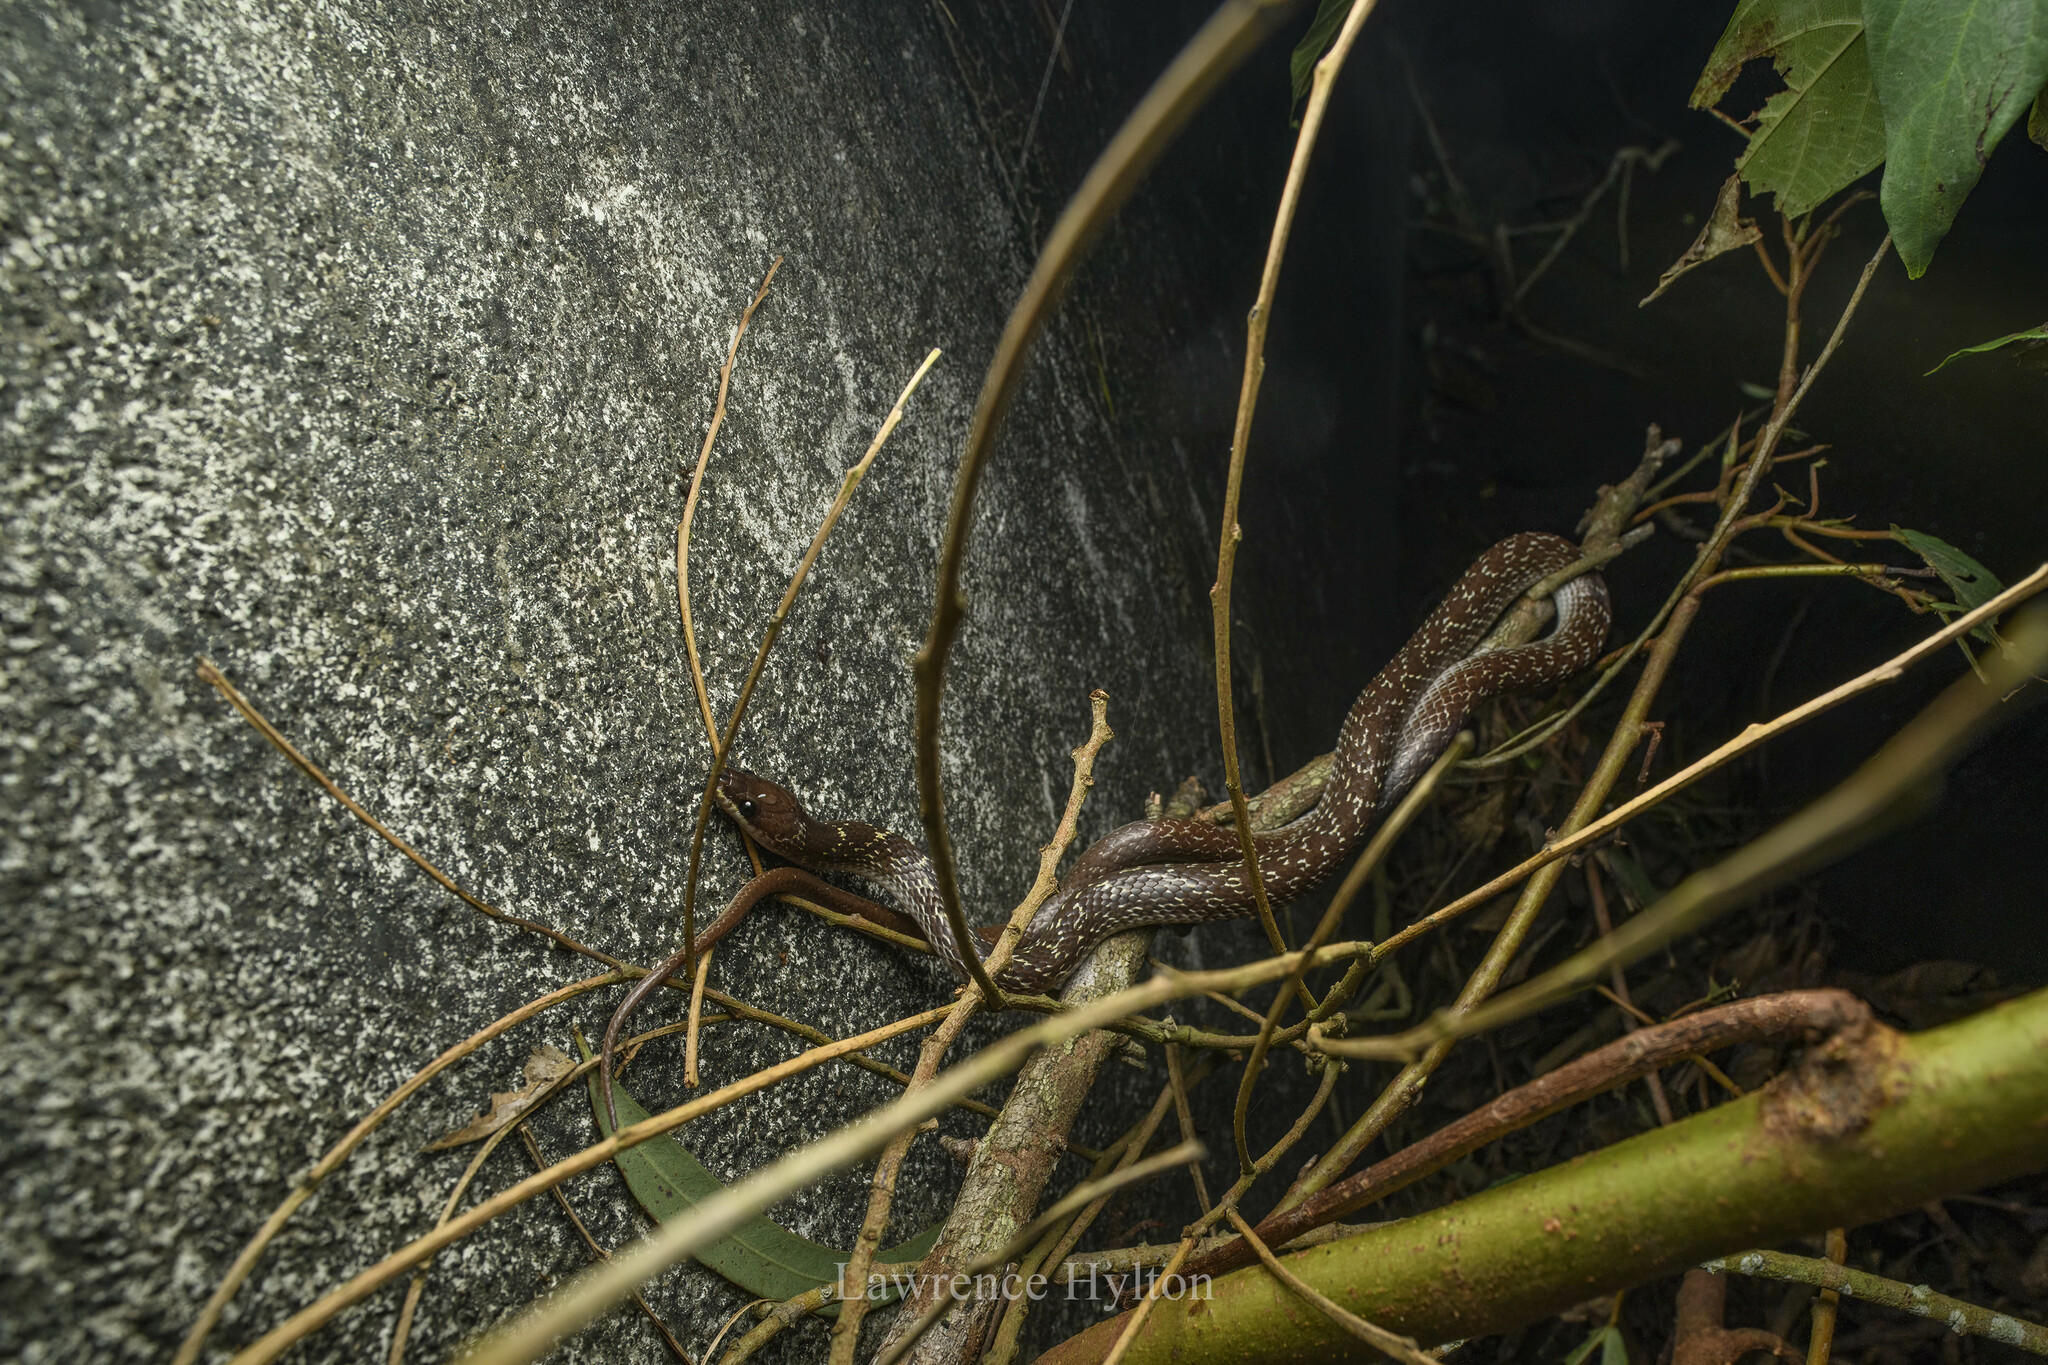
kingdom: Animalia
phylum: Chordata
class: Squamata
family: Colubridae
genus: Lycodon
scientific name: Lycodon capucinus
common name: Common wold snake/house snake
